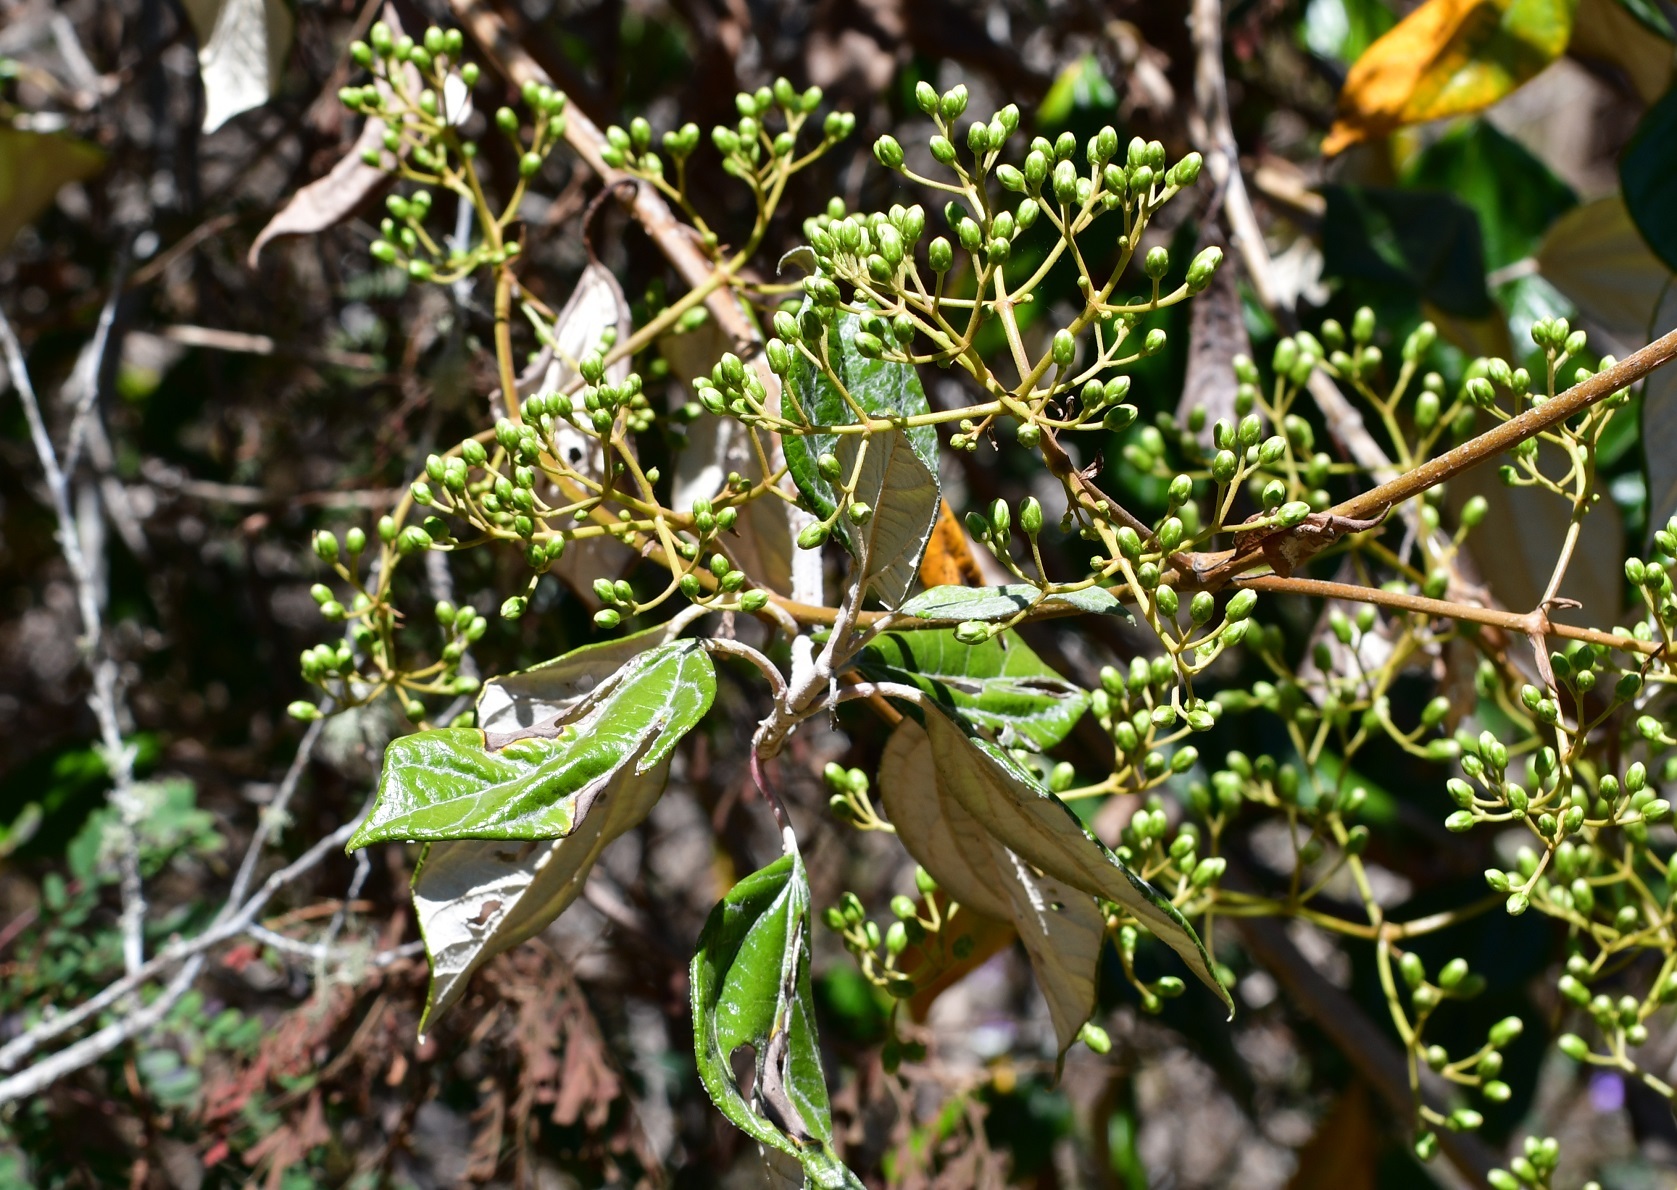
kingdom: Plantae
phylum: Tracheophyta
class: Magnoliopsida
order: Asterales
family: Asteraceae
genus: Sinclairia
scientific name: Sinclairia discolor
